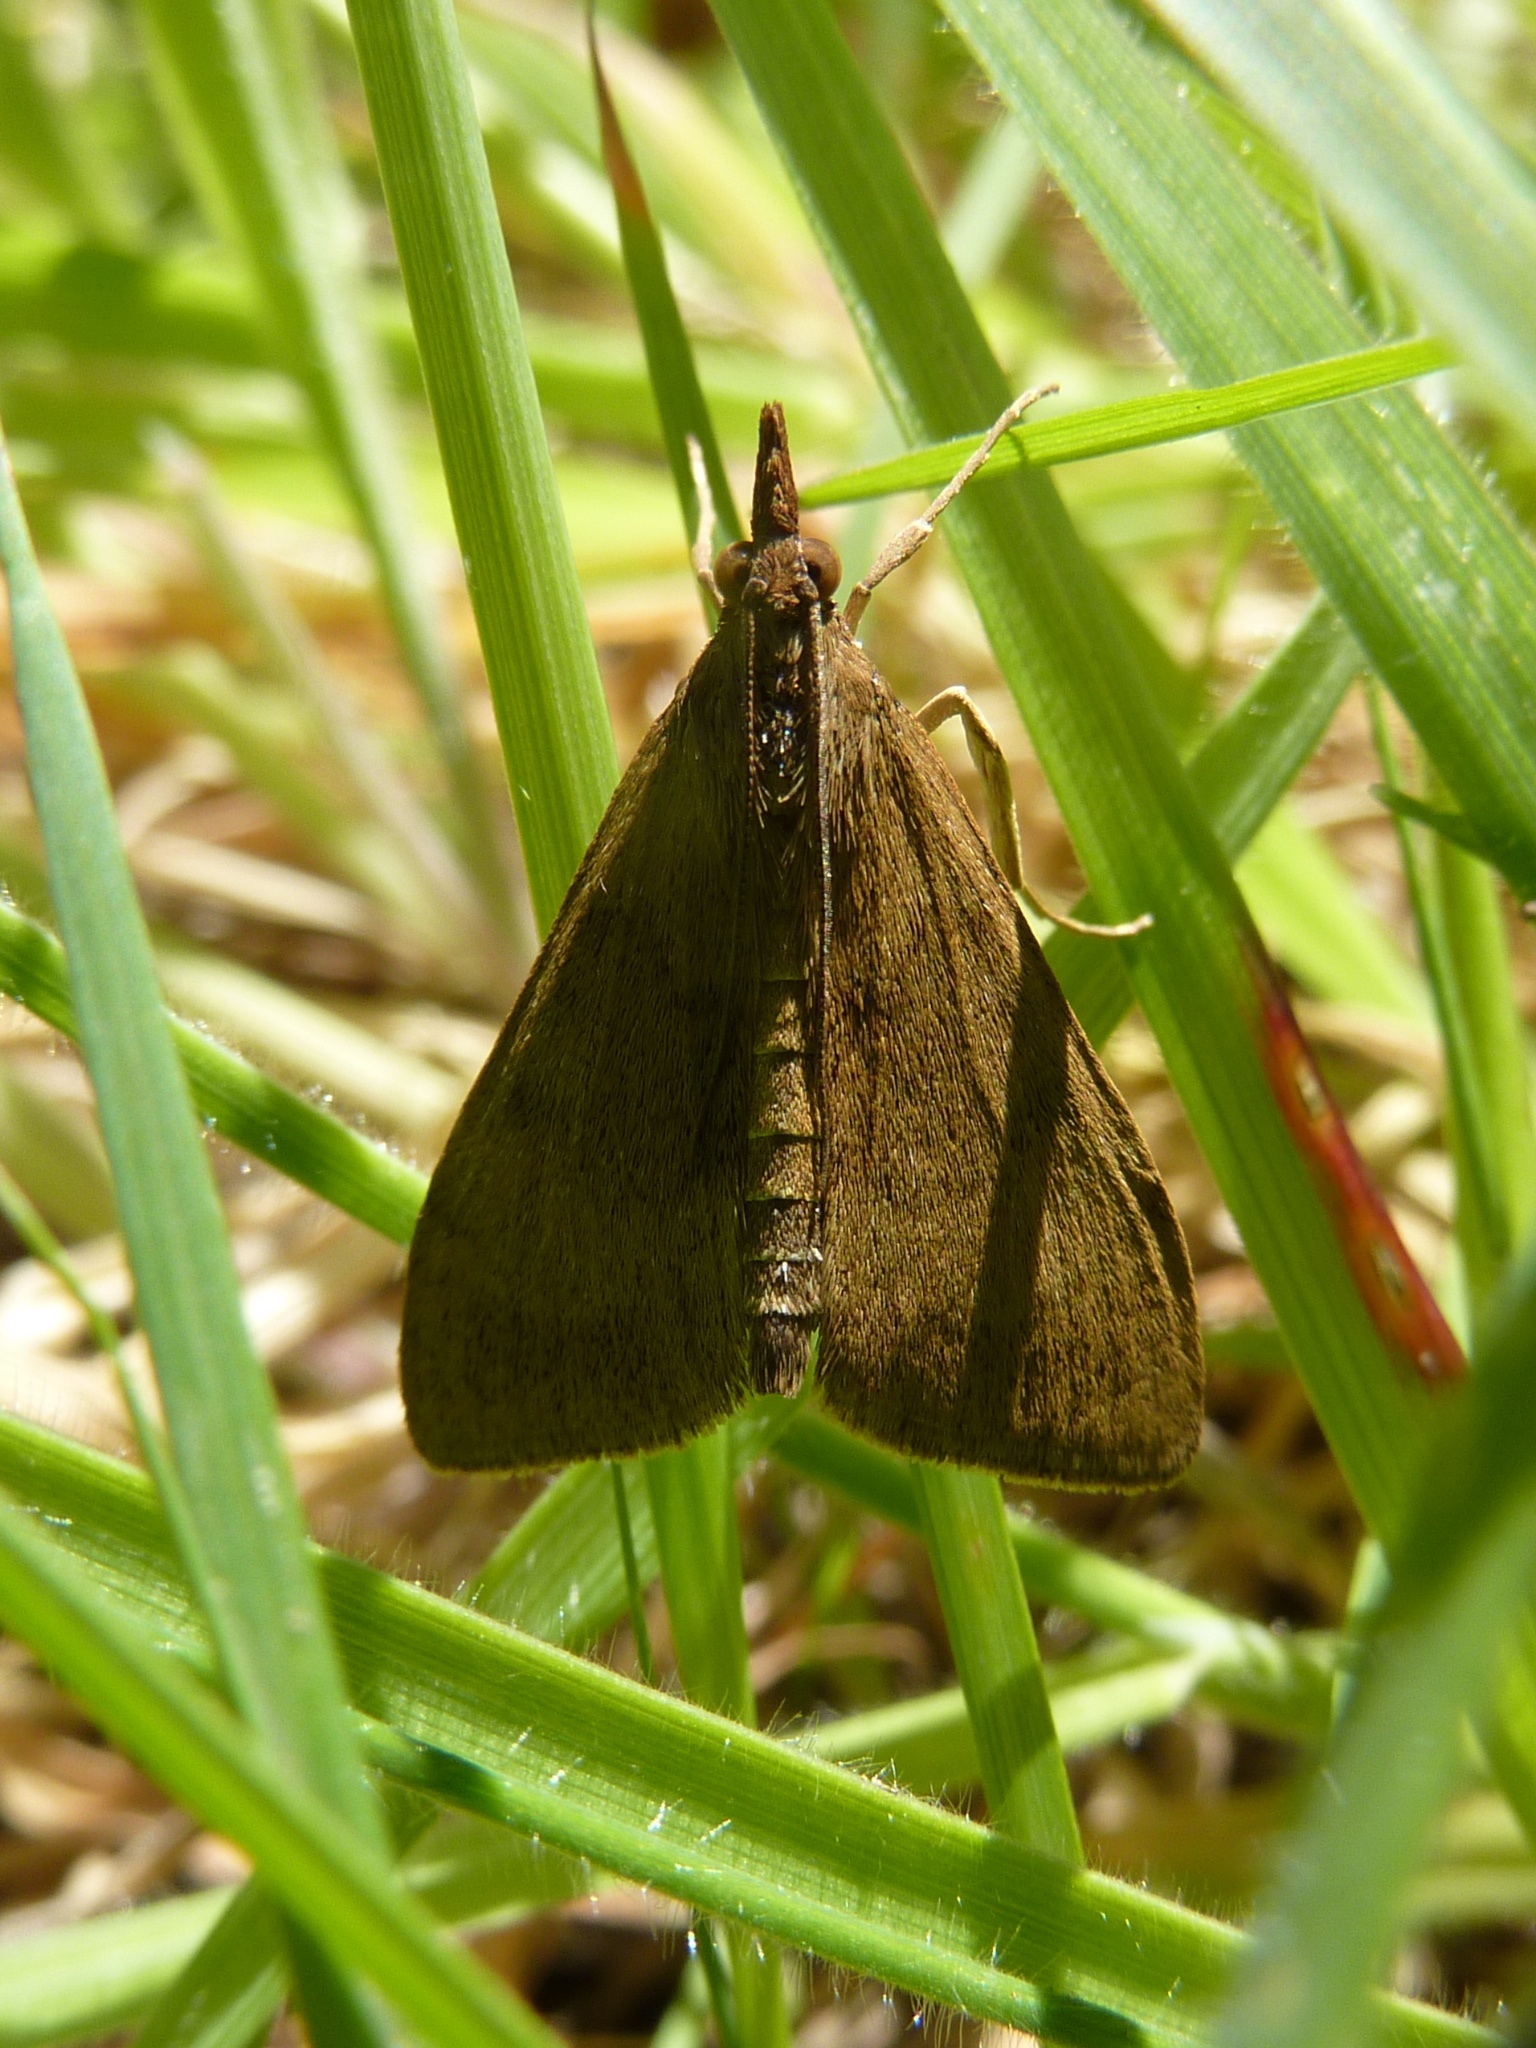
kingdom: Animalia
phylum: Arthropoda
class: Insecta
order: Lepidoptera
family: Crambidae
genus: Uresiphita
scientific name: Uresiphita
